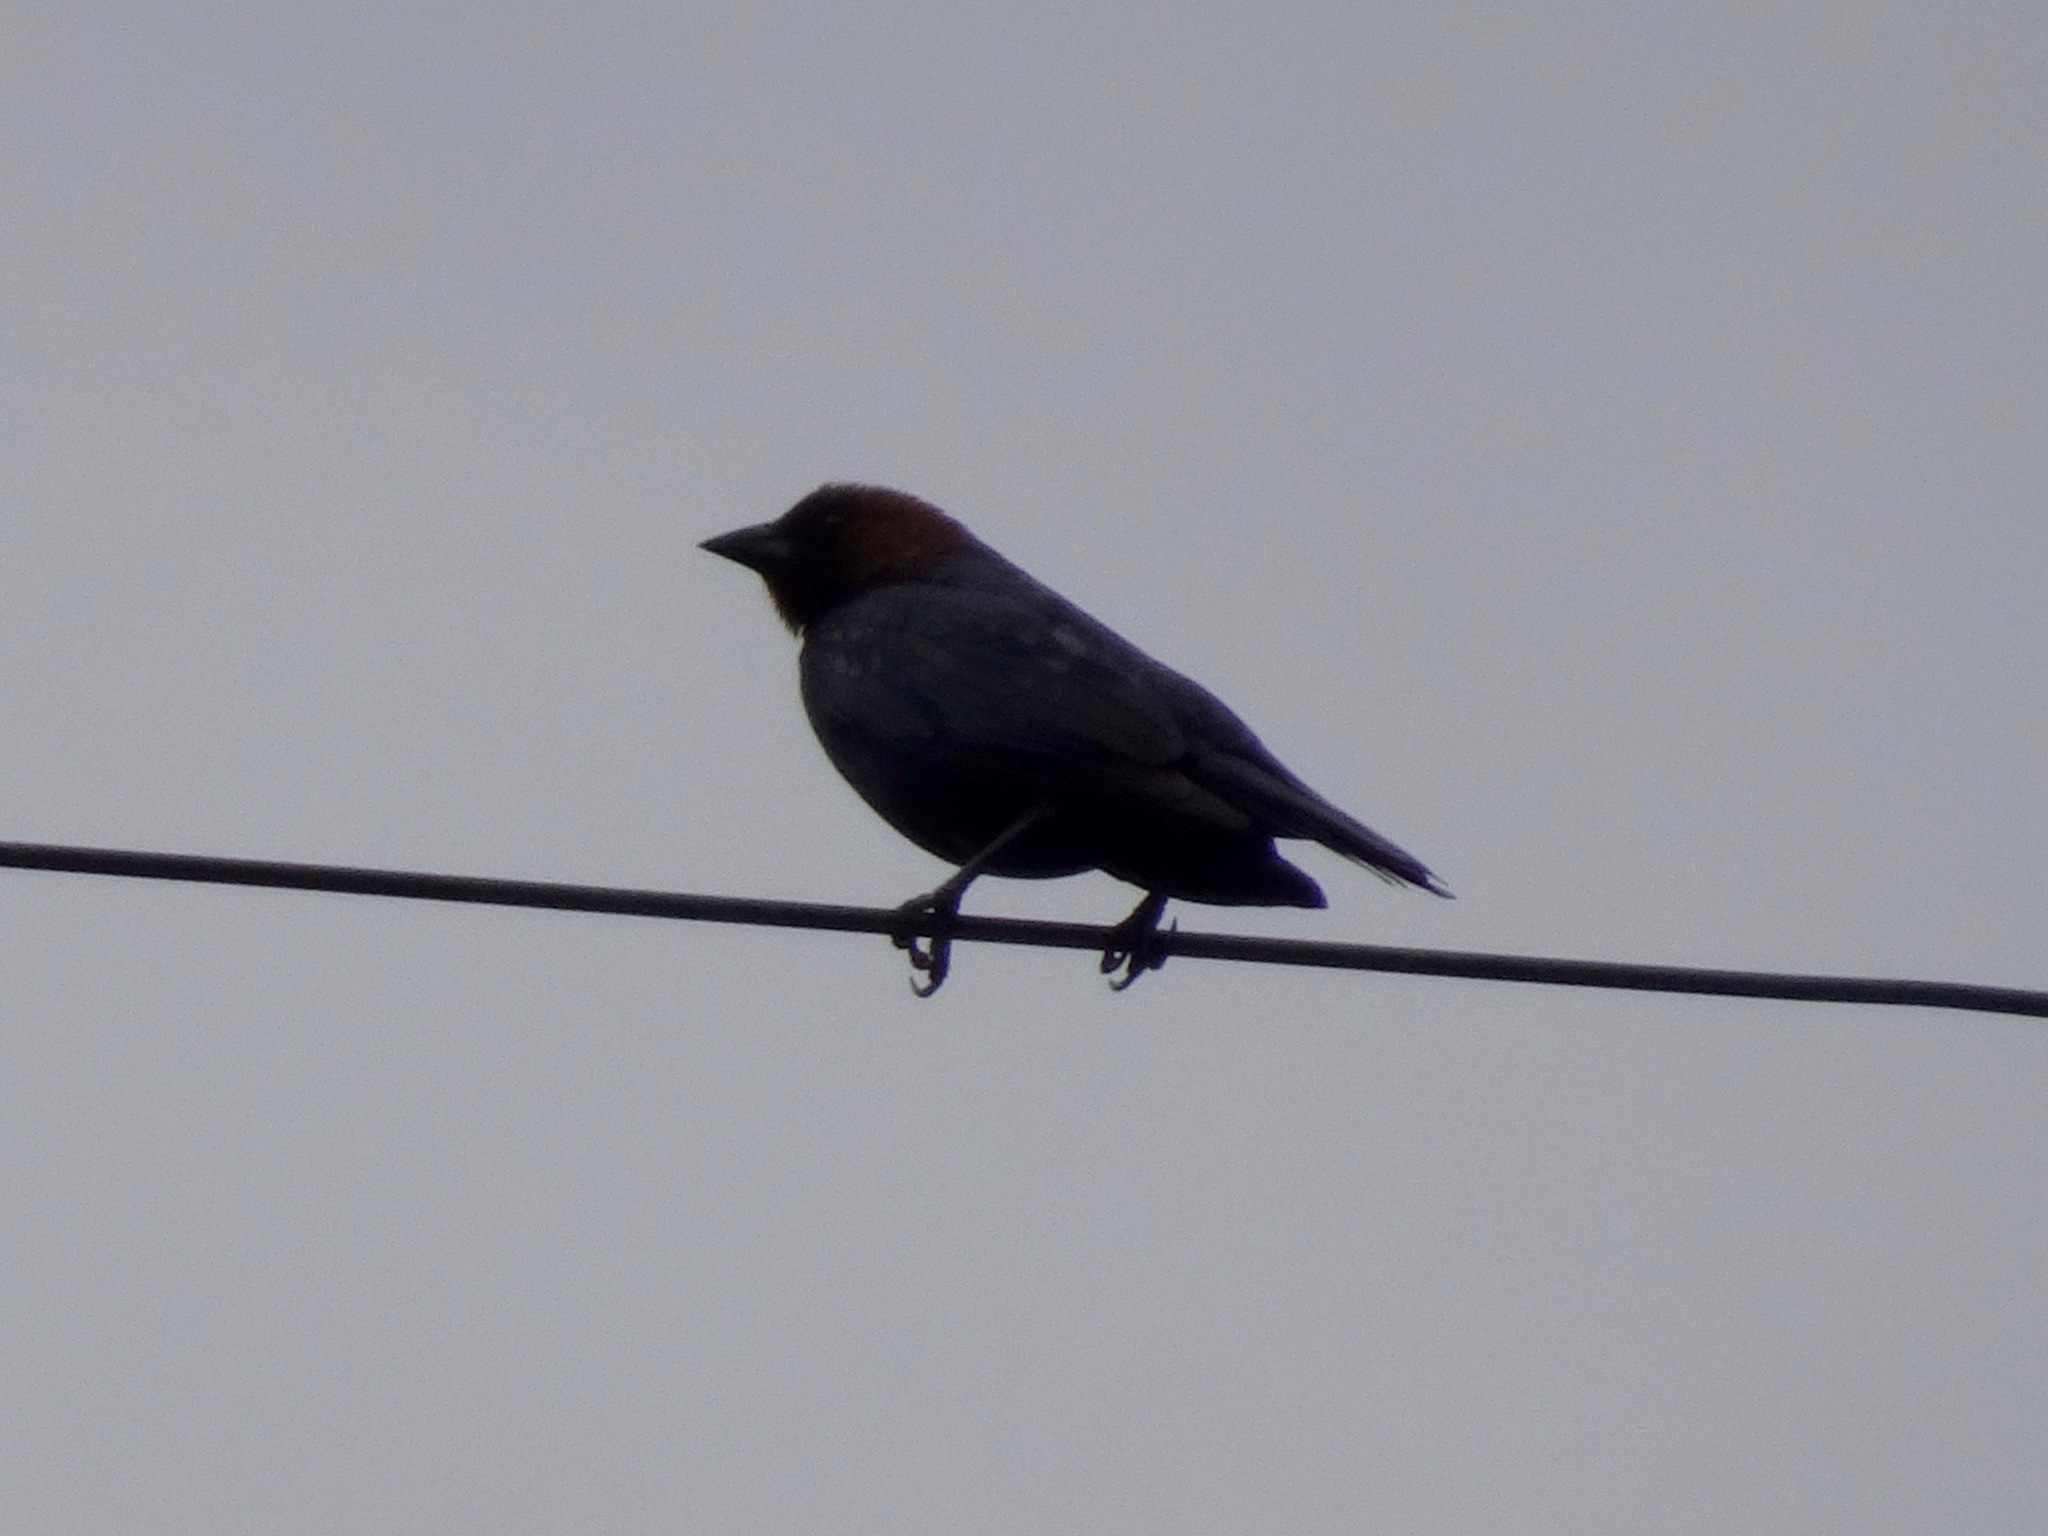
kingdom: Animalia
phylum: Chordata
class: Aves
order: Passeriformes
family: Icteridae
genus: Molothrus
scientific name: Molothrus ater
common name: Brown-headed cowbird
